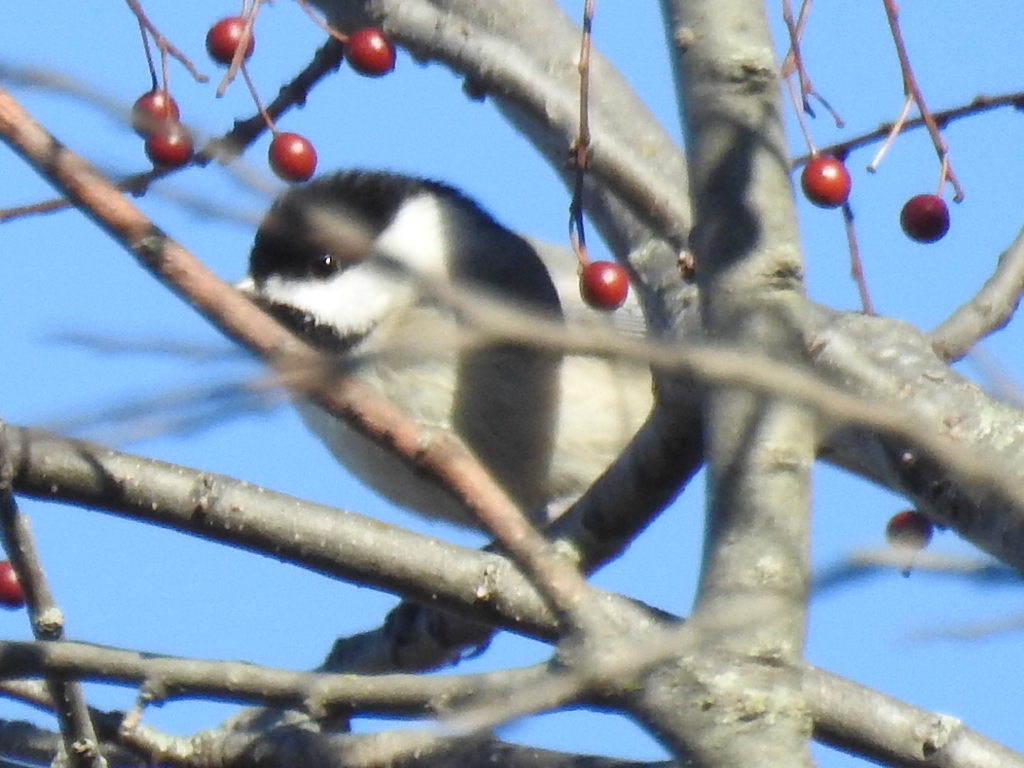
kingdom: Animalia
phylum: Chordata
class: Aves
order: Passeriformes
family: Paridae
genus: Poecile
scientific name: Poecile carolinensis
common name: Carolina chickadee
